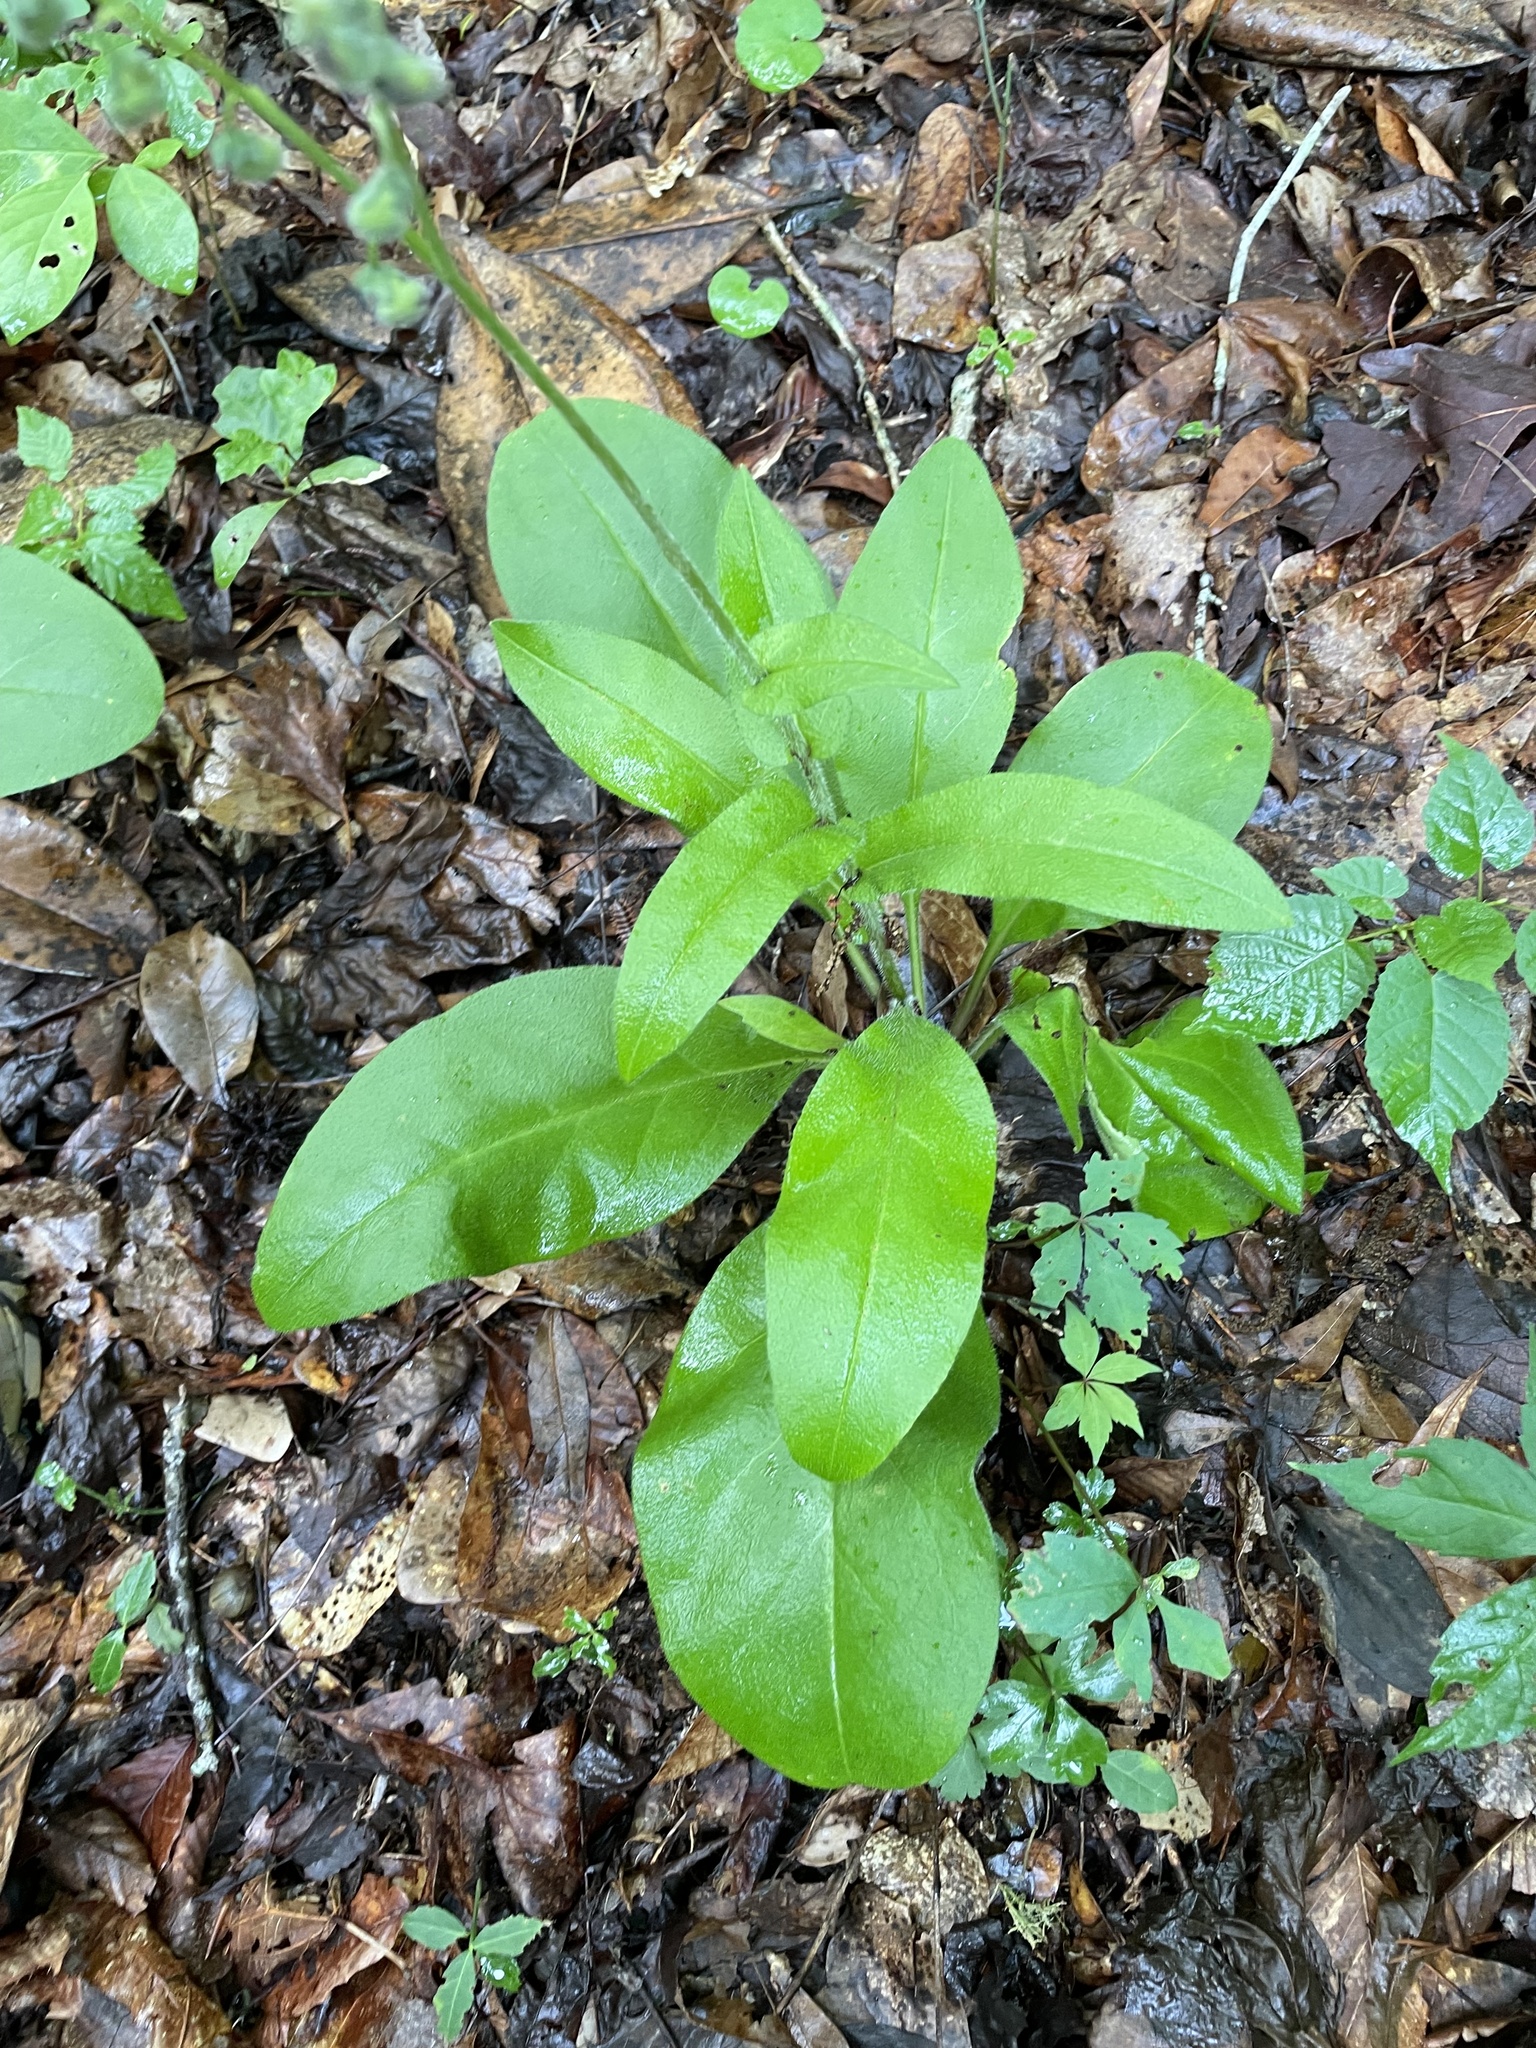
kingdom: Plantae
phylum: Tracheophyta
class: Magnoliopsida
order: Boraginales
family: Boraginaceae
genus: Andersonglossum
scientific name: Andersonglossum virginianum
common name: Wild comfrey
